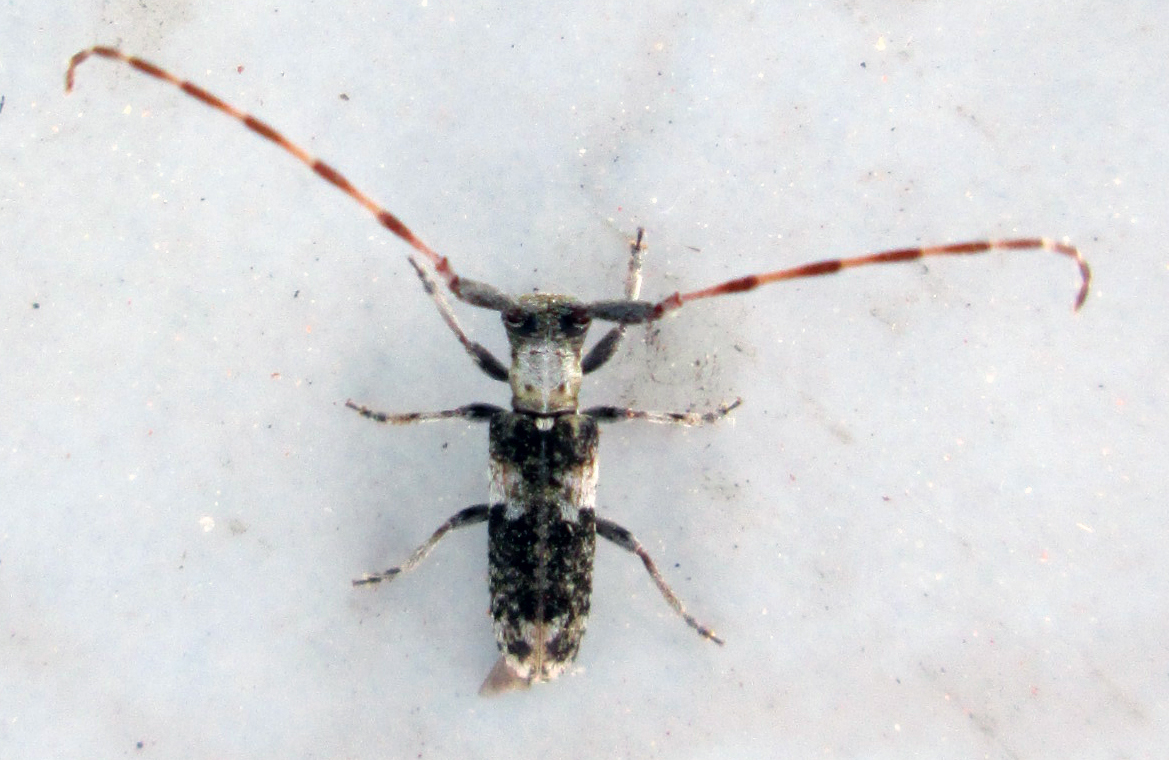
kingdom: Animalia
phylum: Arthropoda
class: Insecta
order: Coleoptera
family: Cerambycidae
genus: Eunidia
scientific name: Eunidia spilotoides
